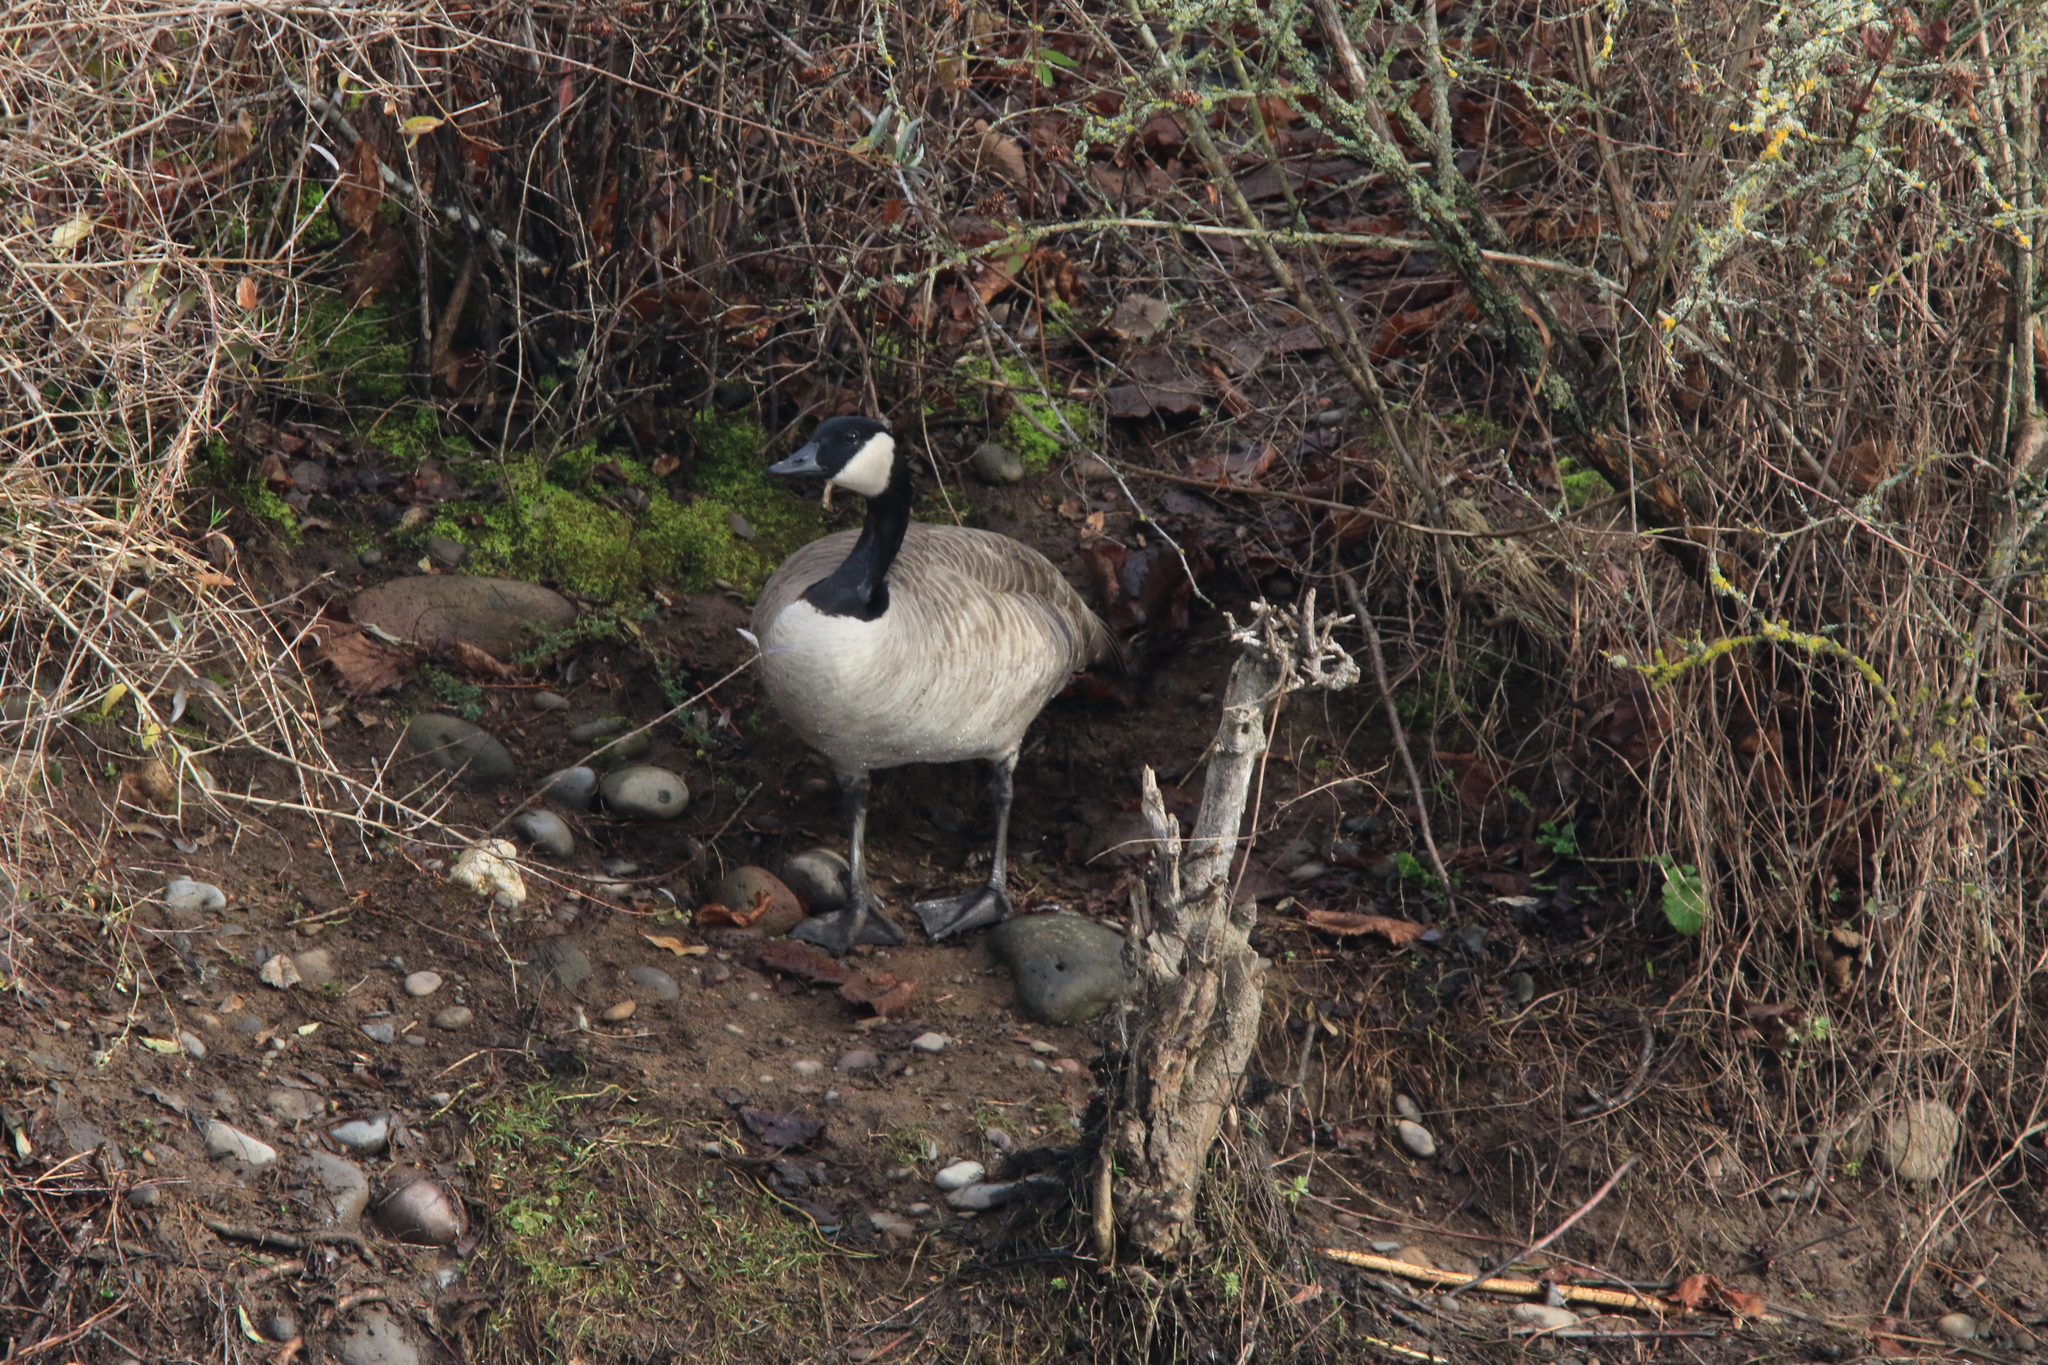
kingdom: Animalia
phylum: Chordata
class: Aves
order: Anseriformes
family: Anatidae
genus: Branta
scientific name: Branta canadensis
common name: Canada goose
